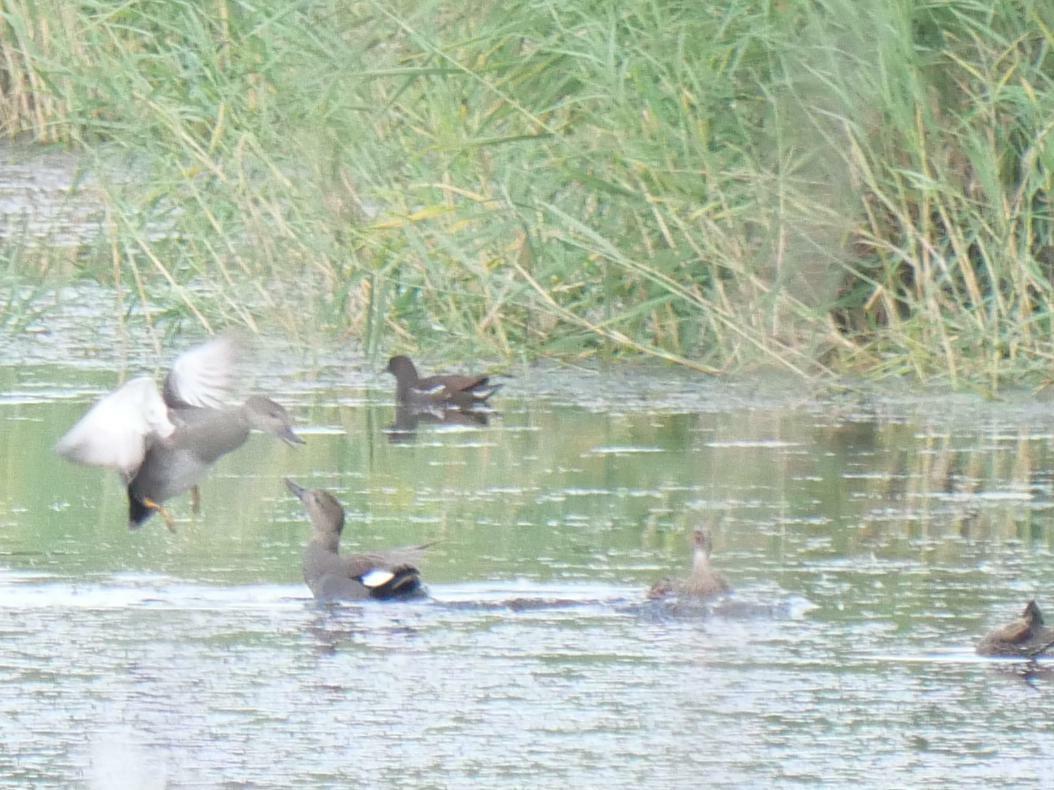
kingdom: Animalia
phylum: Chordata
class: Aves
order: Gruiformes
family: Rallidae
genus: Gallinula
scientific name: Gallinula chloropus
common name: Common moorhen
